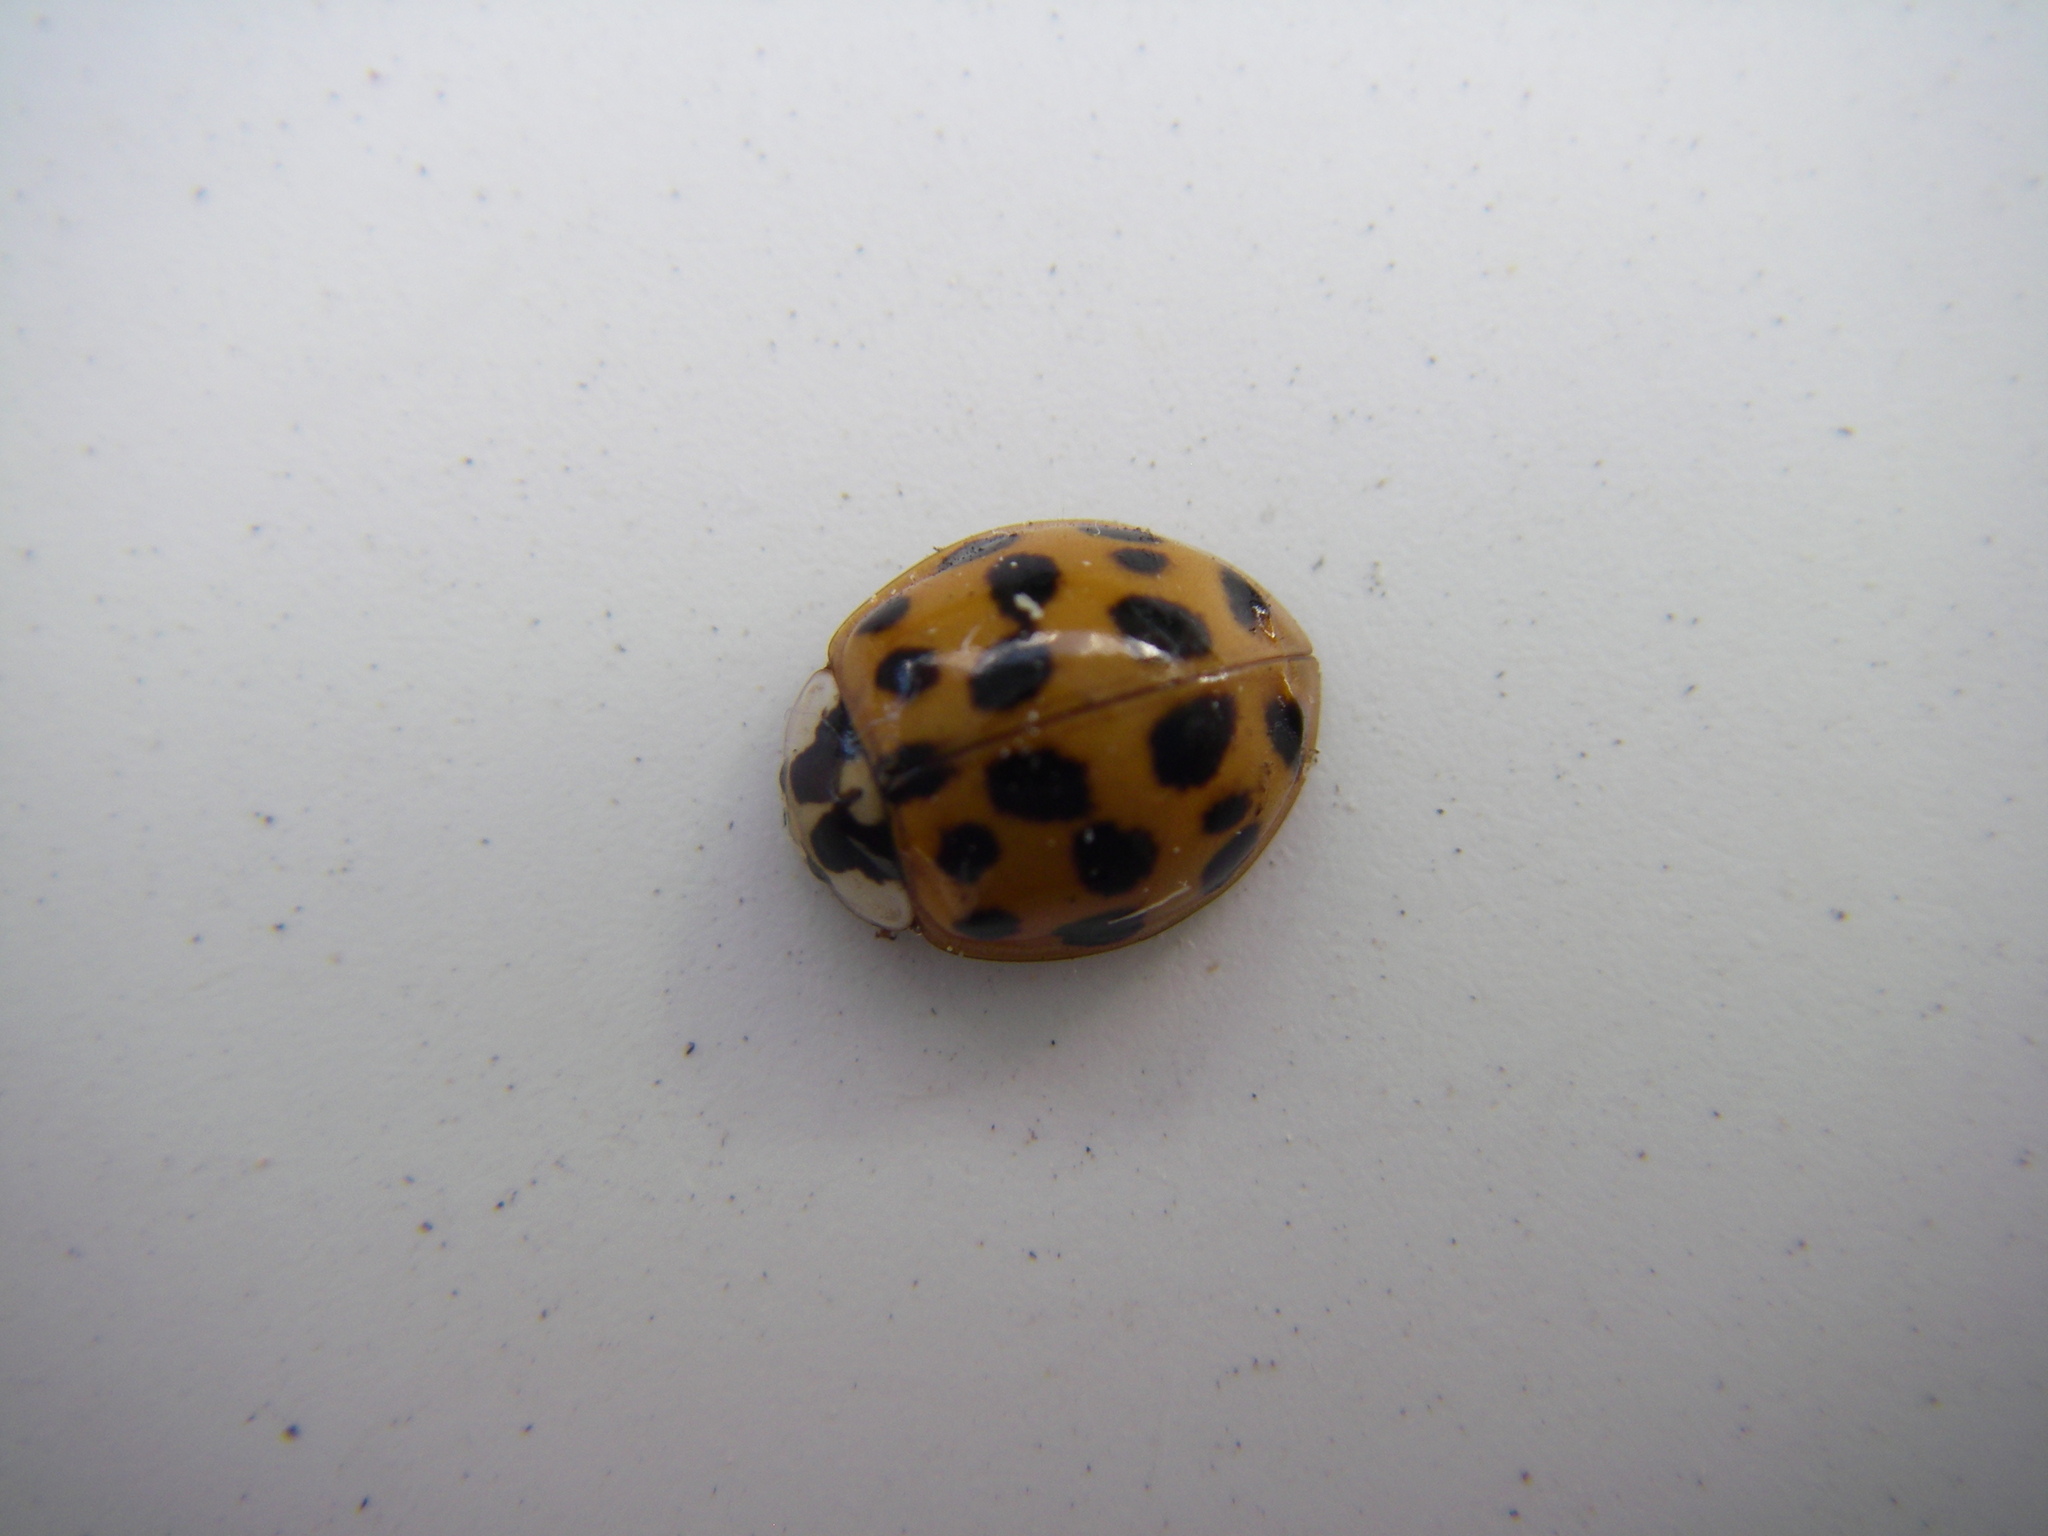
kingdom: Animalia
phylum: Arthropoda
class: Insecta
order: Coleoptera
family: Coccinellidae
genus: Harmonia
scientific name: Harmonia axyridis
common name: Harlequin ladybird
